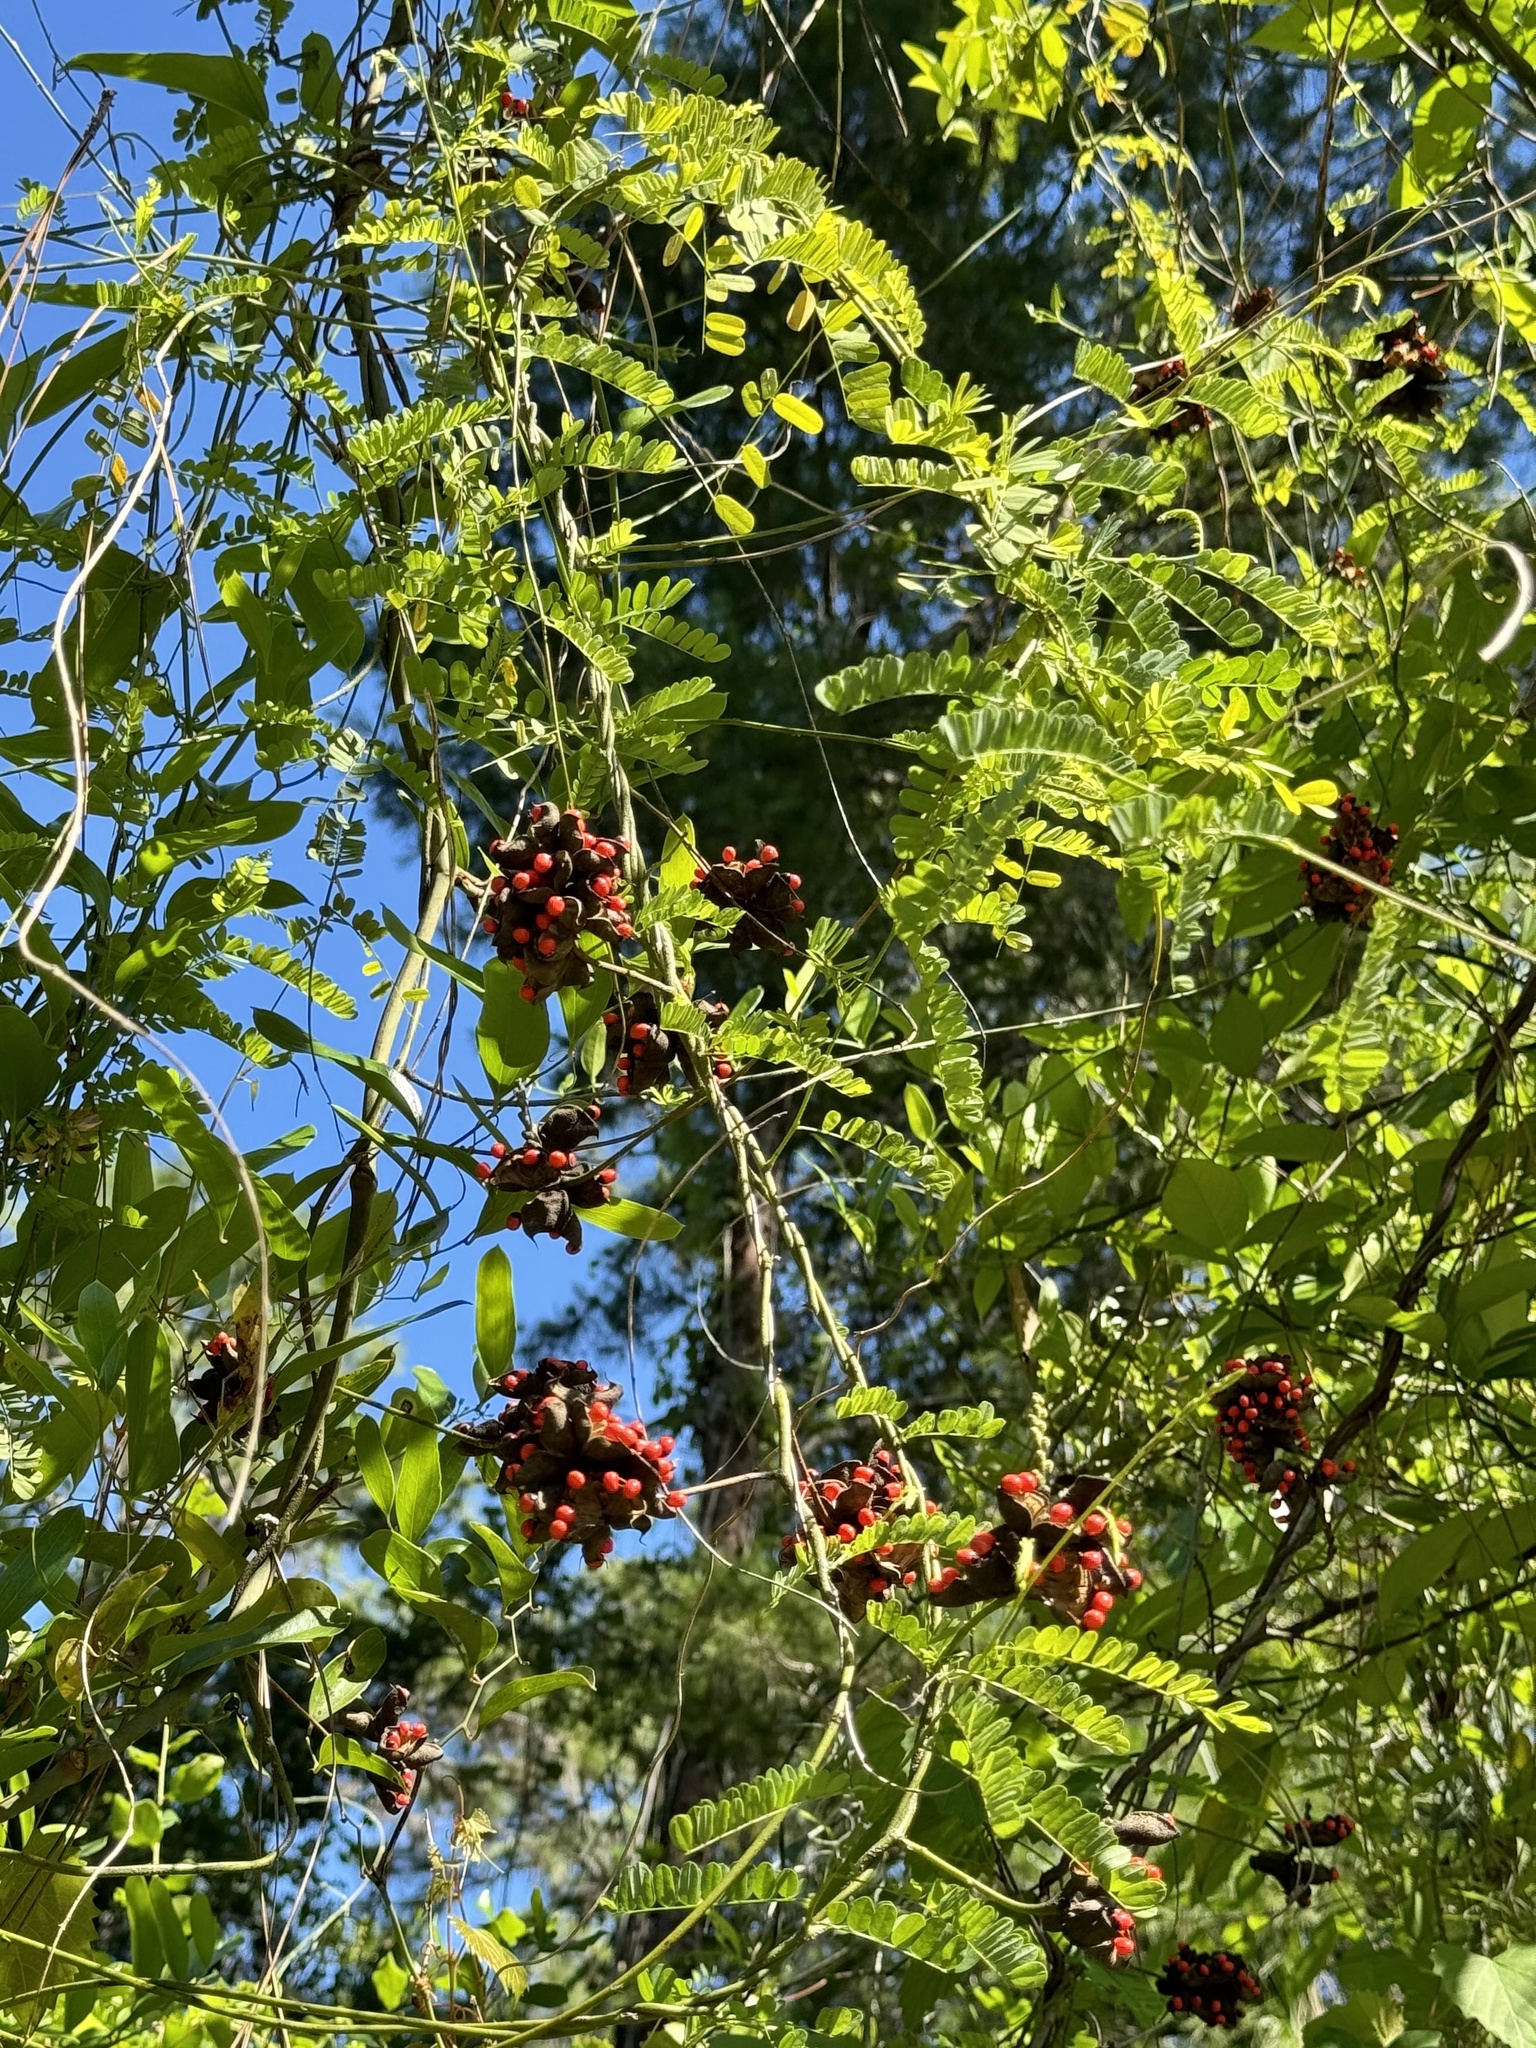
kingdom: Plantae
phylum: Tracheophyta
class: Magnoliopsida
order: Fabales
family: Fabaceae
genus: Abrus
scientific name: Abrus precatorius
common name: Rosarypea
